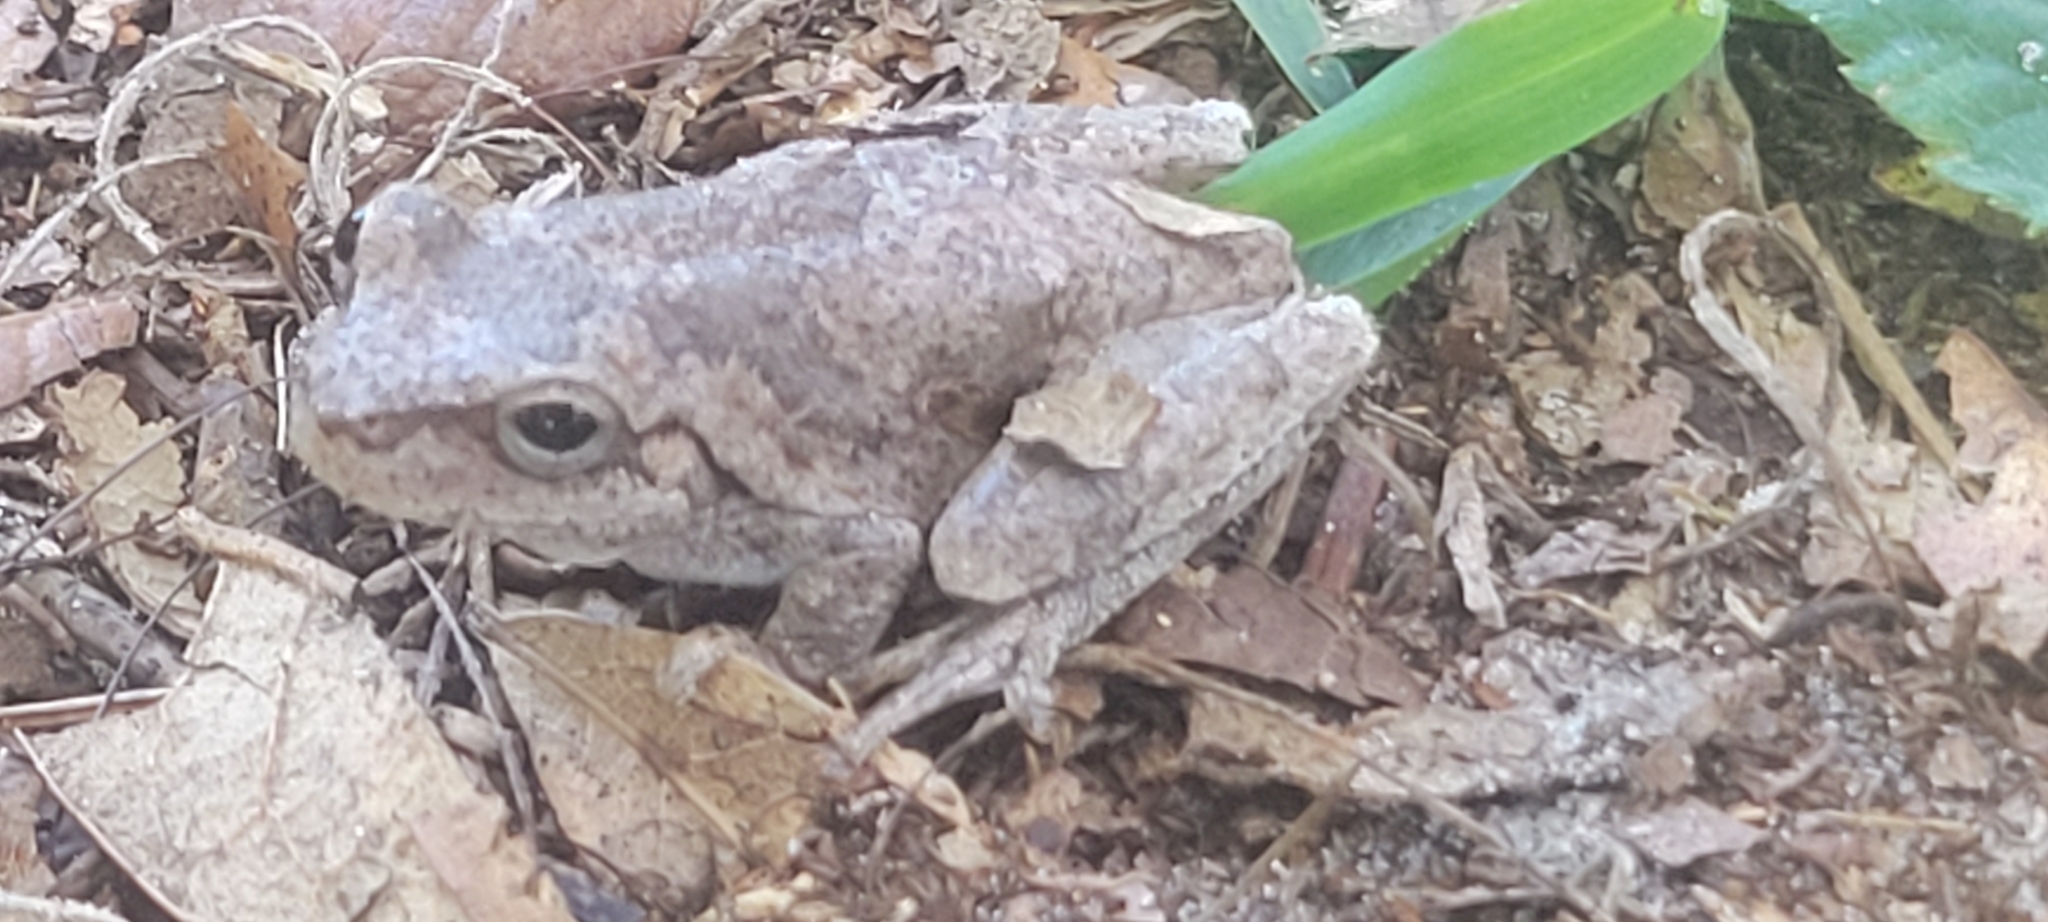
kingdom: Animalia
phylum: Chordata
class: Amphibia
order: Anura
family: Hylidae
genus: Hyla
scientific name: Hyla femoralis
